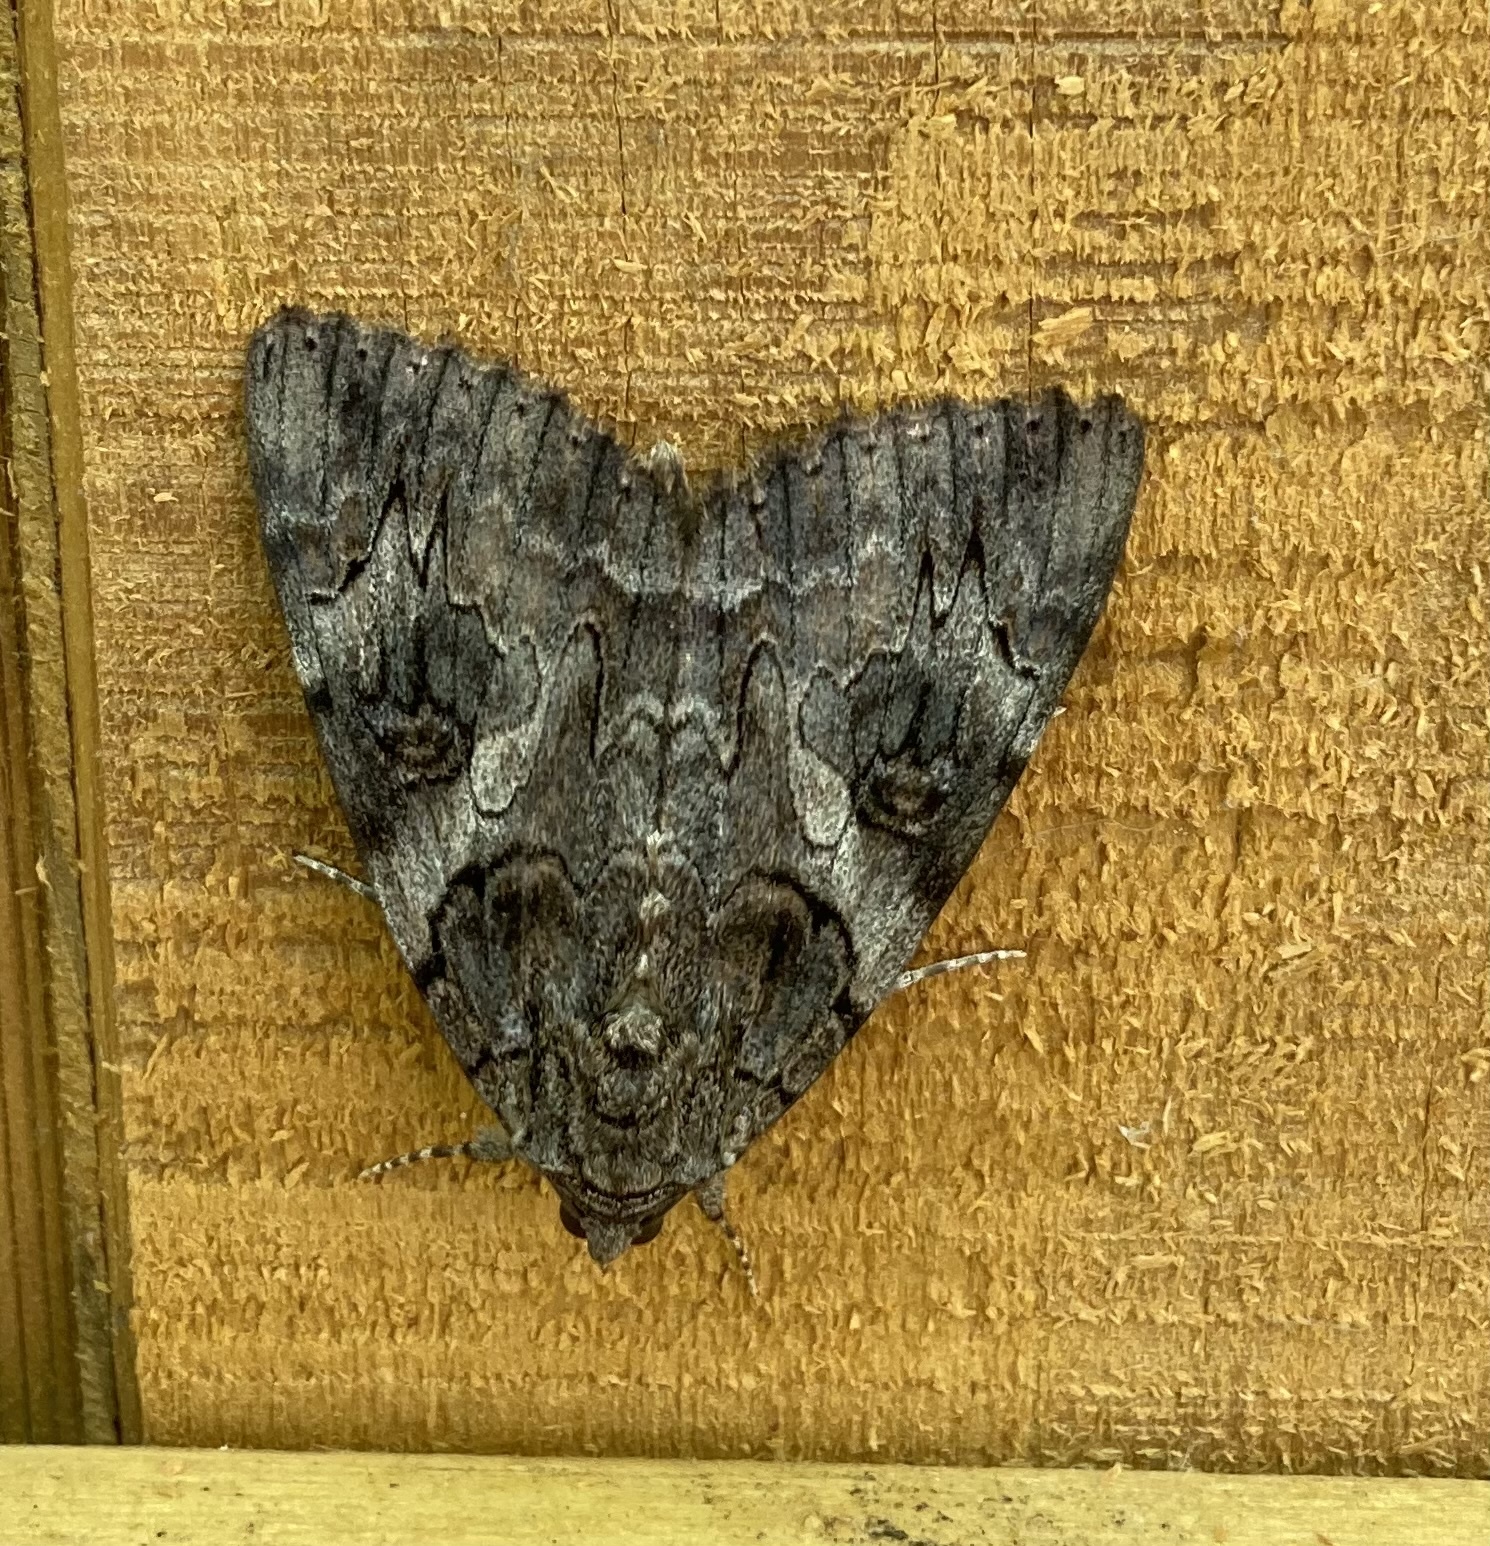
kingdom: Animalia
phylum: Arthropoda
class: Insecta
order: Lepidoptera
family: Erebidae
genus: Catocala
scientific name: Catocala piatrix
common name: The penitent underwing
